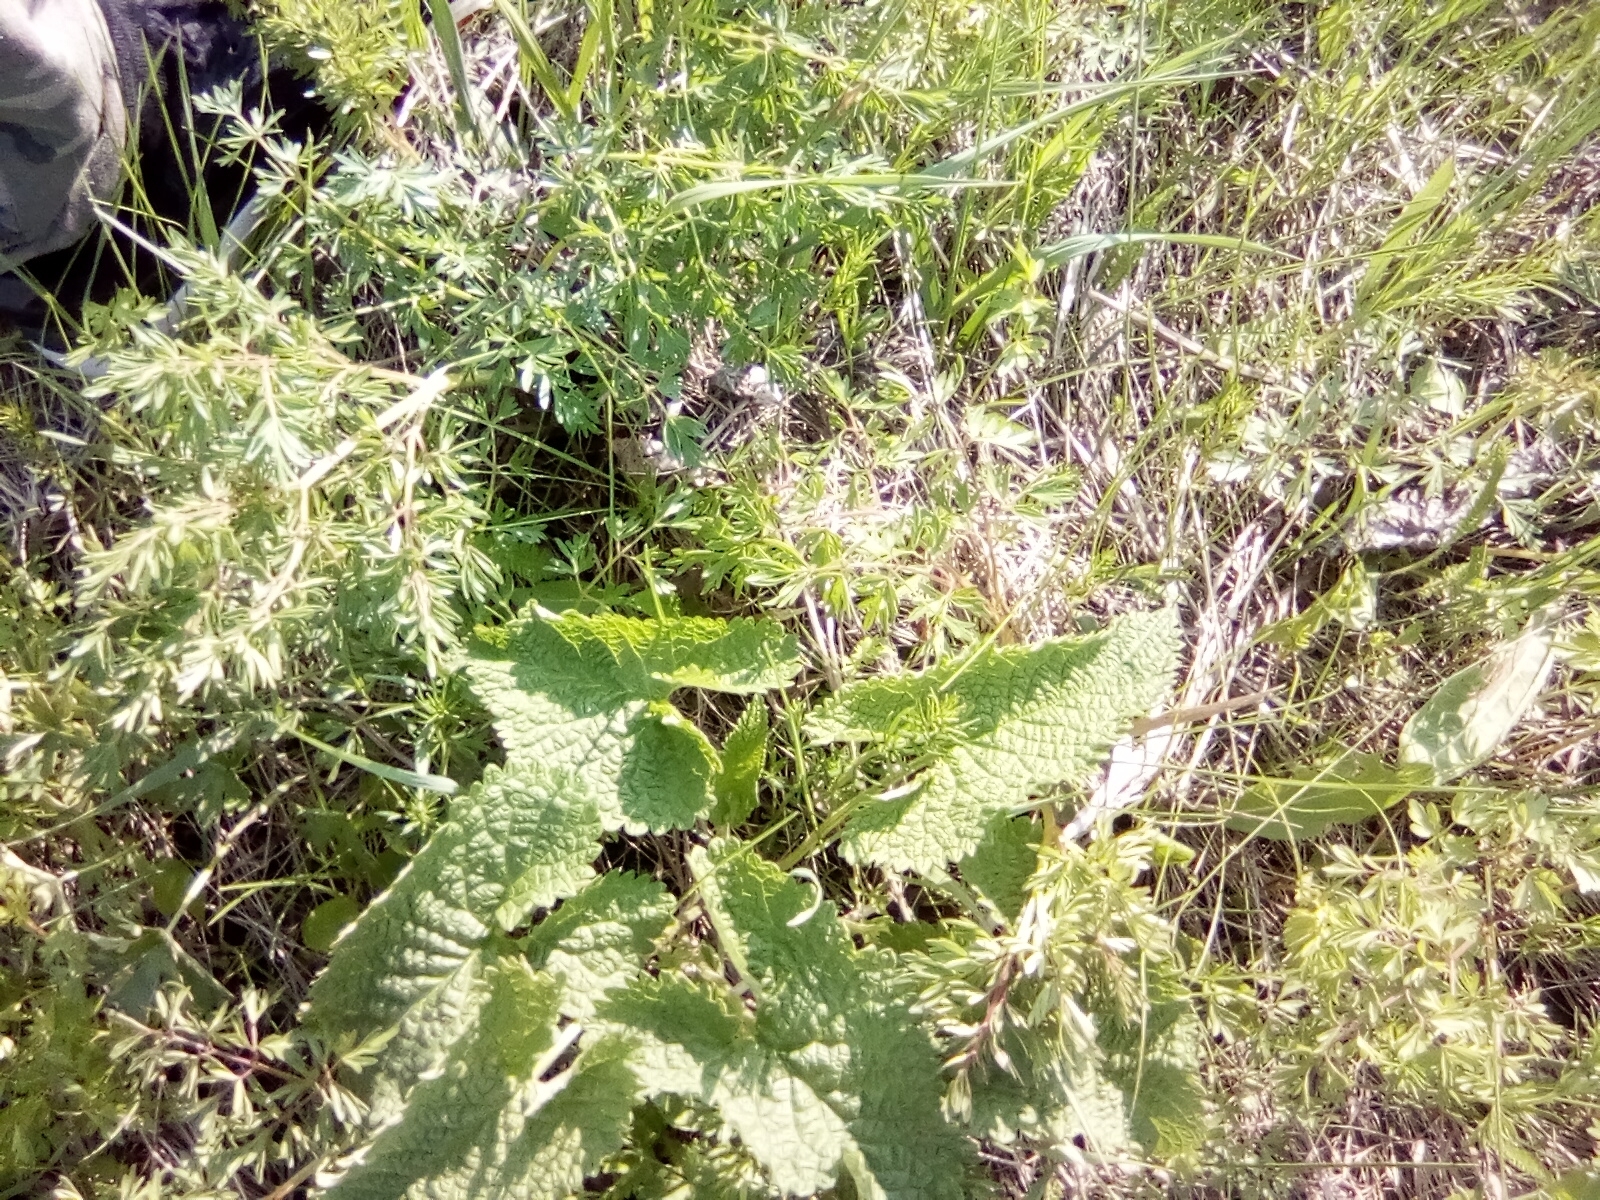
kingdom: Plantae
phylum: Tracheophyta
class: Magnoliopsida
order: Lamiales
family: Lamiaceae
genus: Phlomoides
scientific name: Phlomoides tuberosa
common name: Tuberous jerusalem sage
